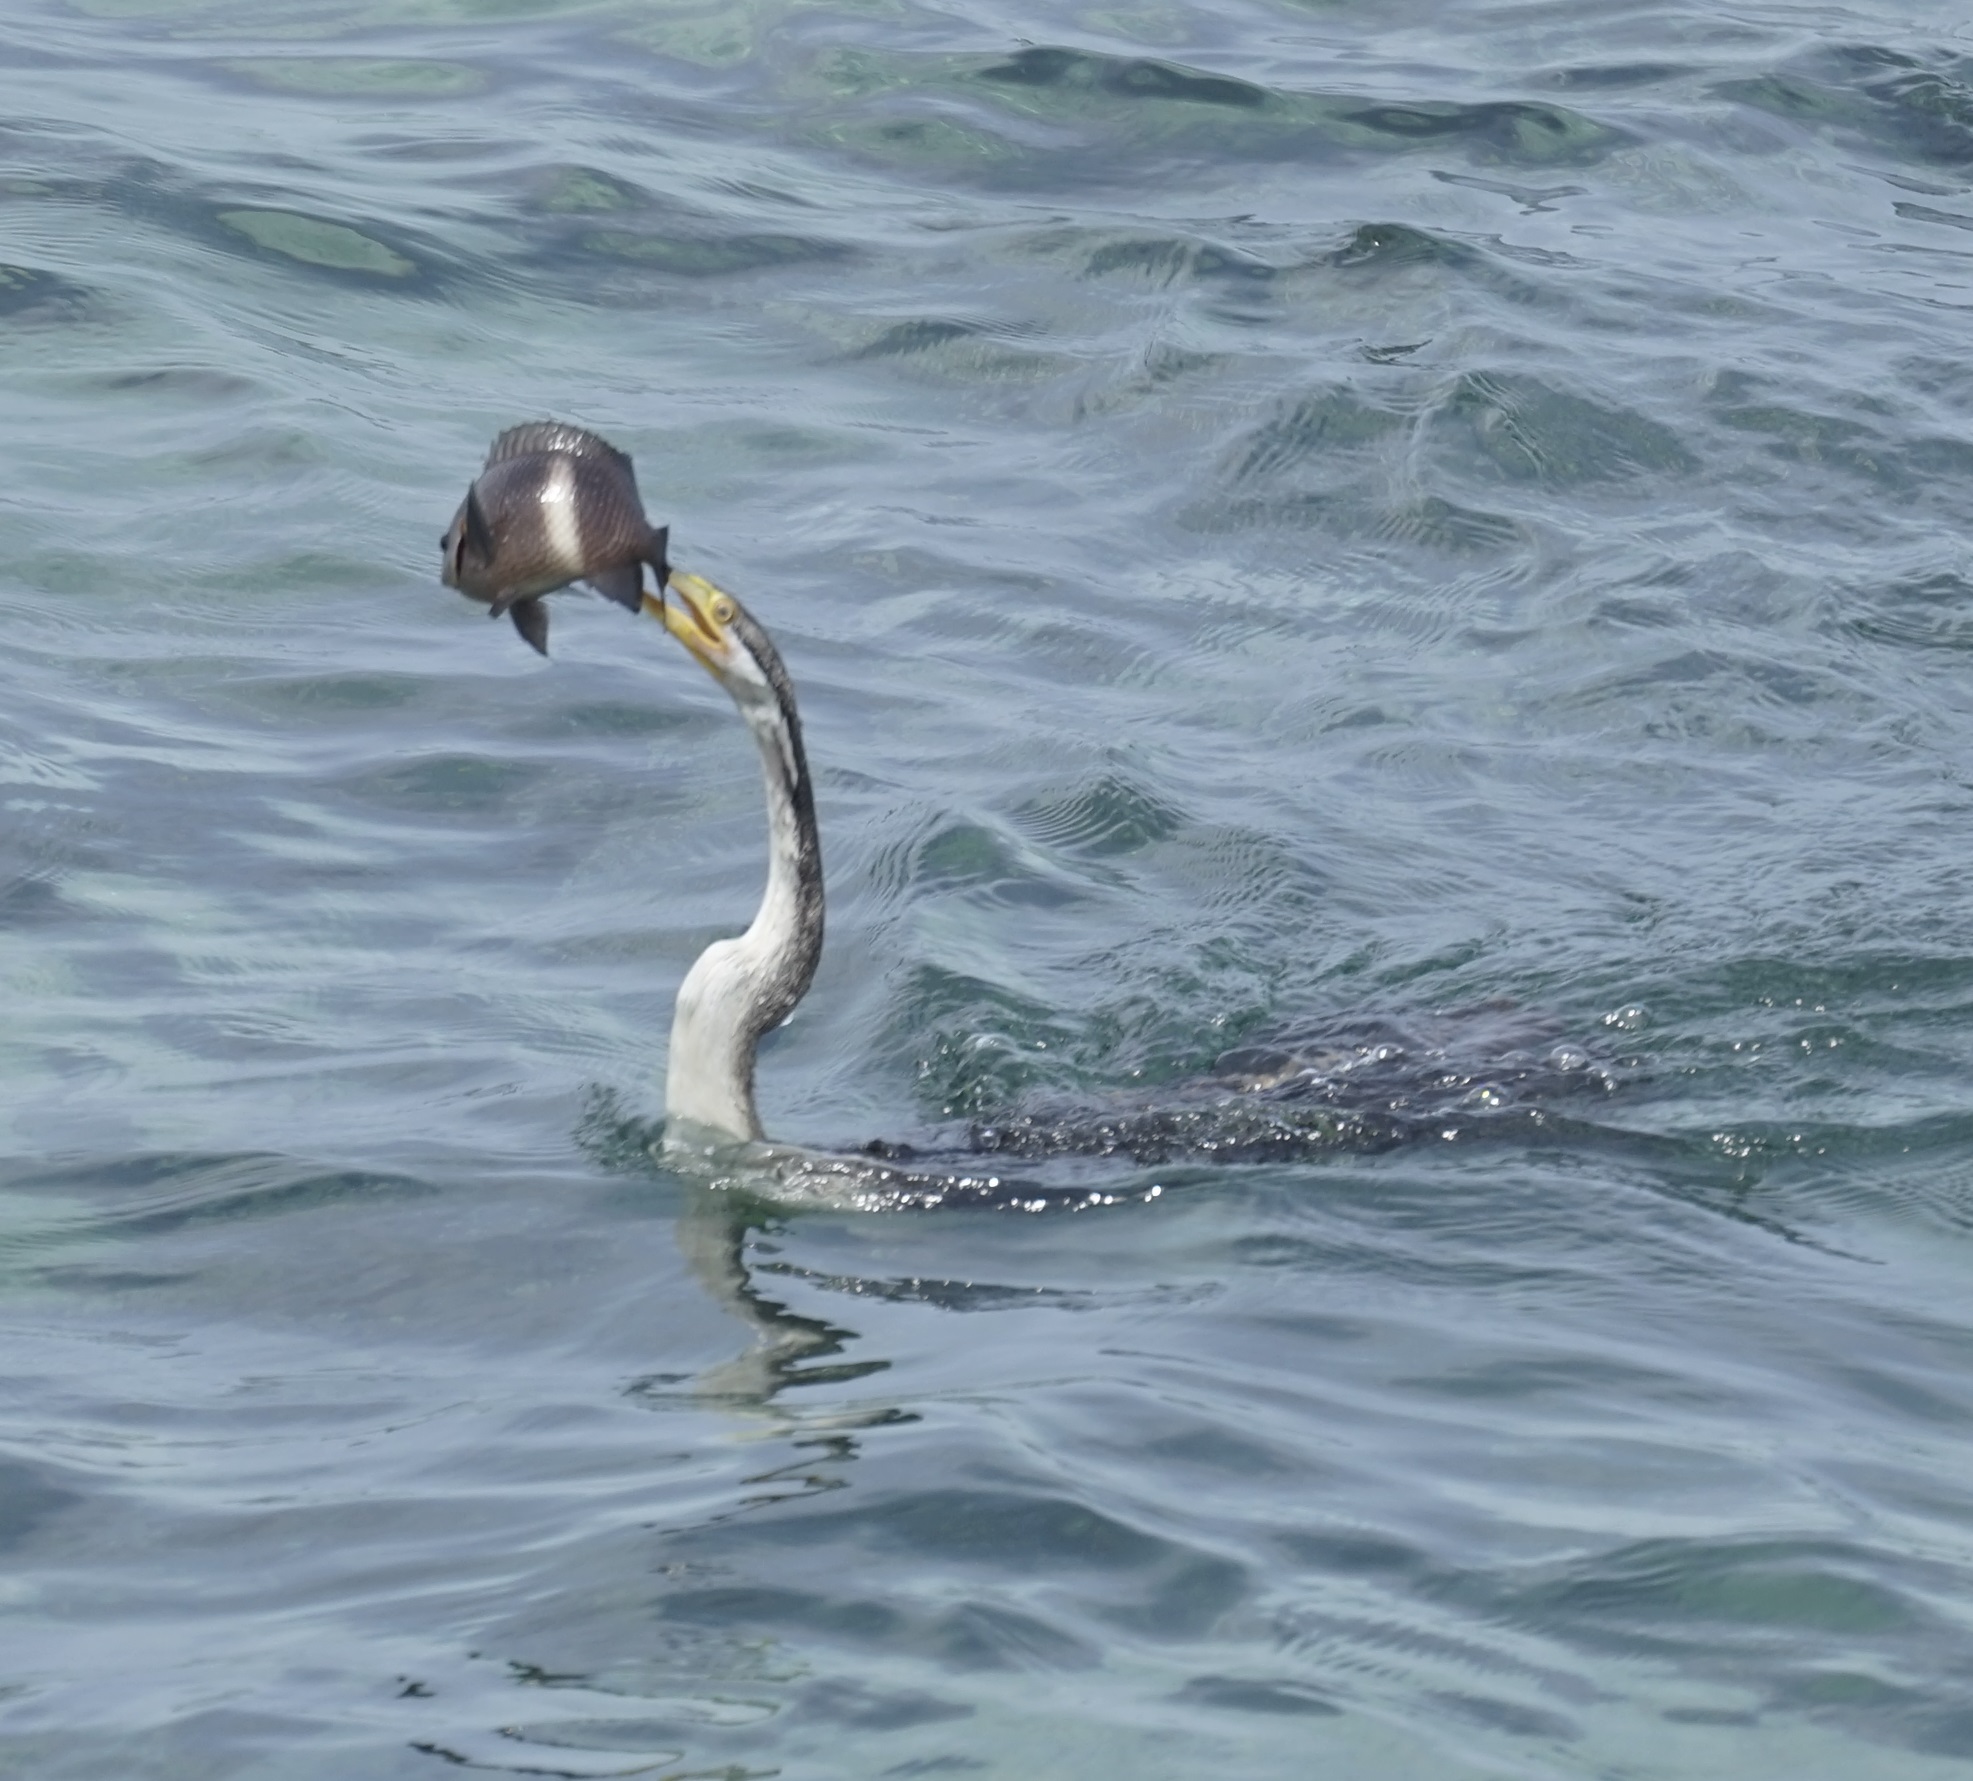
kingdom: Animalia
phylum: Chordata
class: Aves
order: Suliformes
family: Anhingidae
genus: Anhinga
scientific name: Anhinga novaehollandiae
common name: Australasian darter
